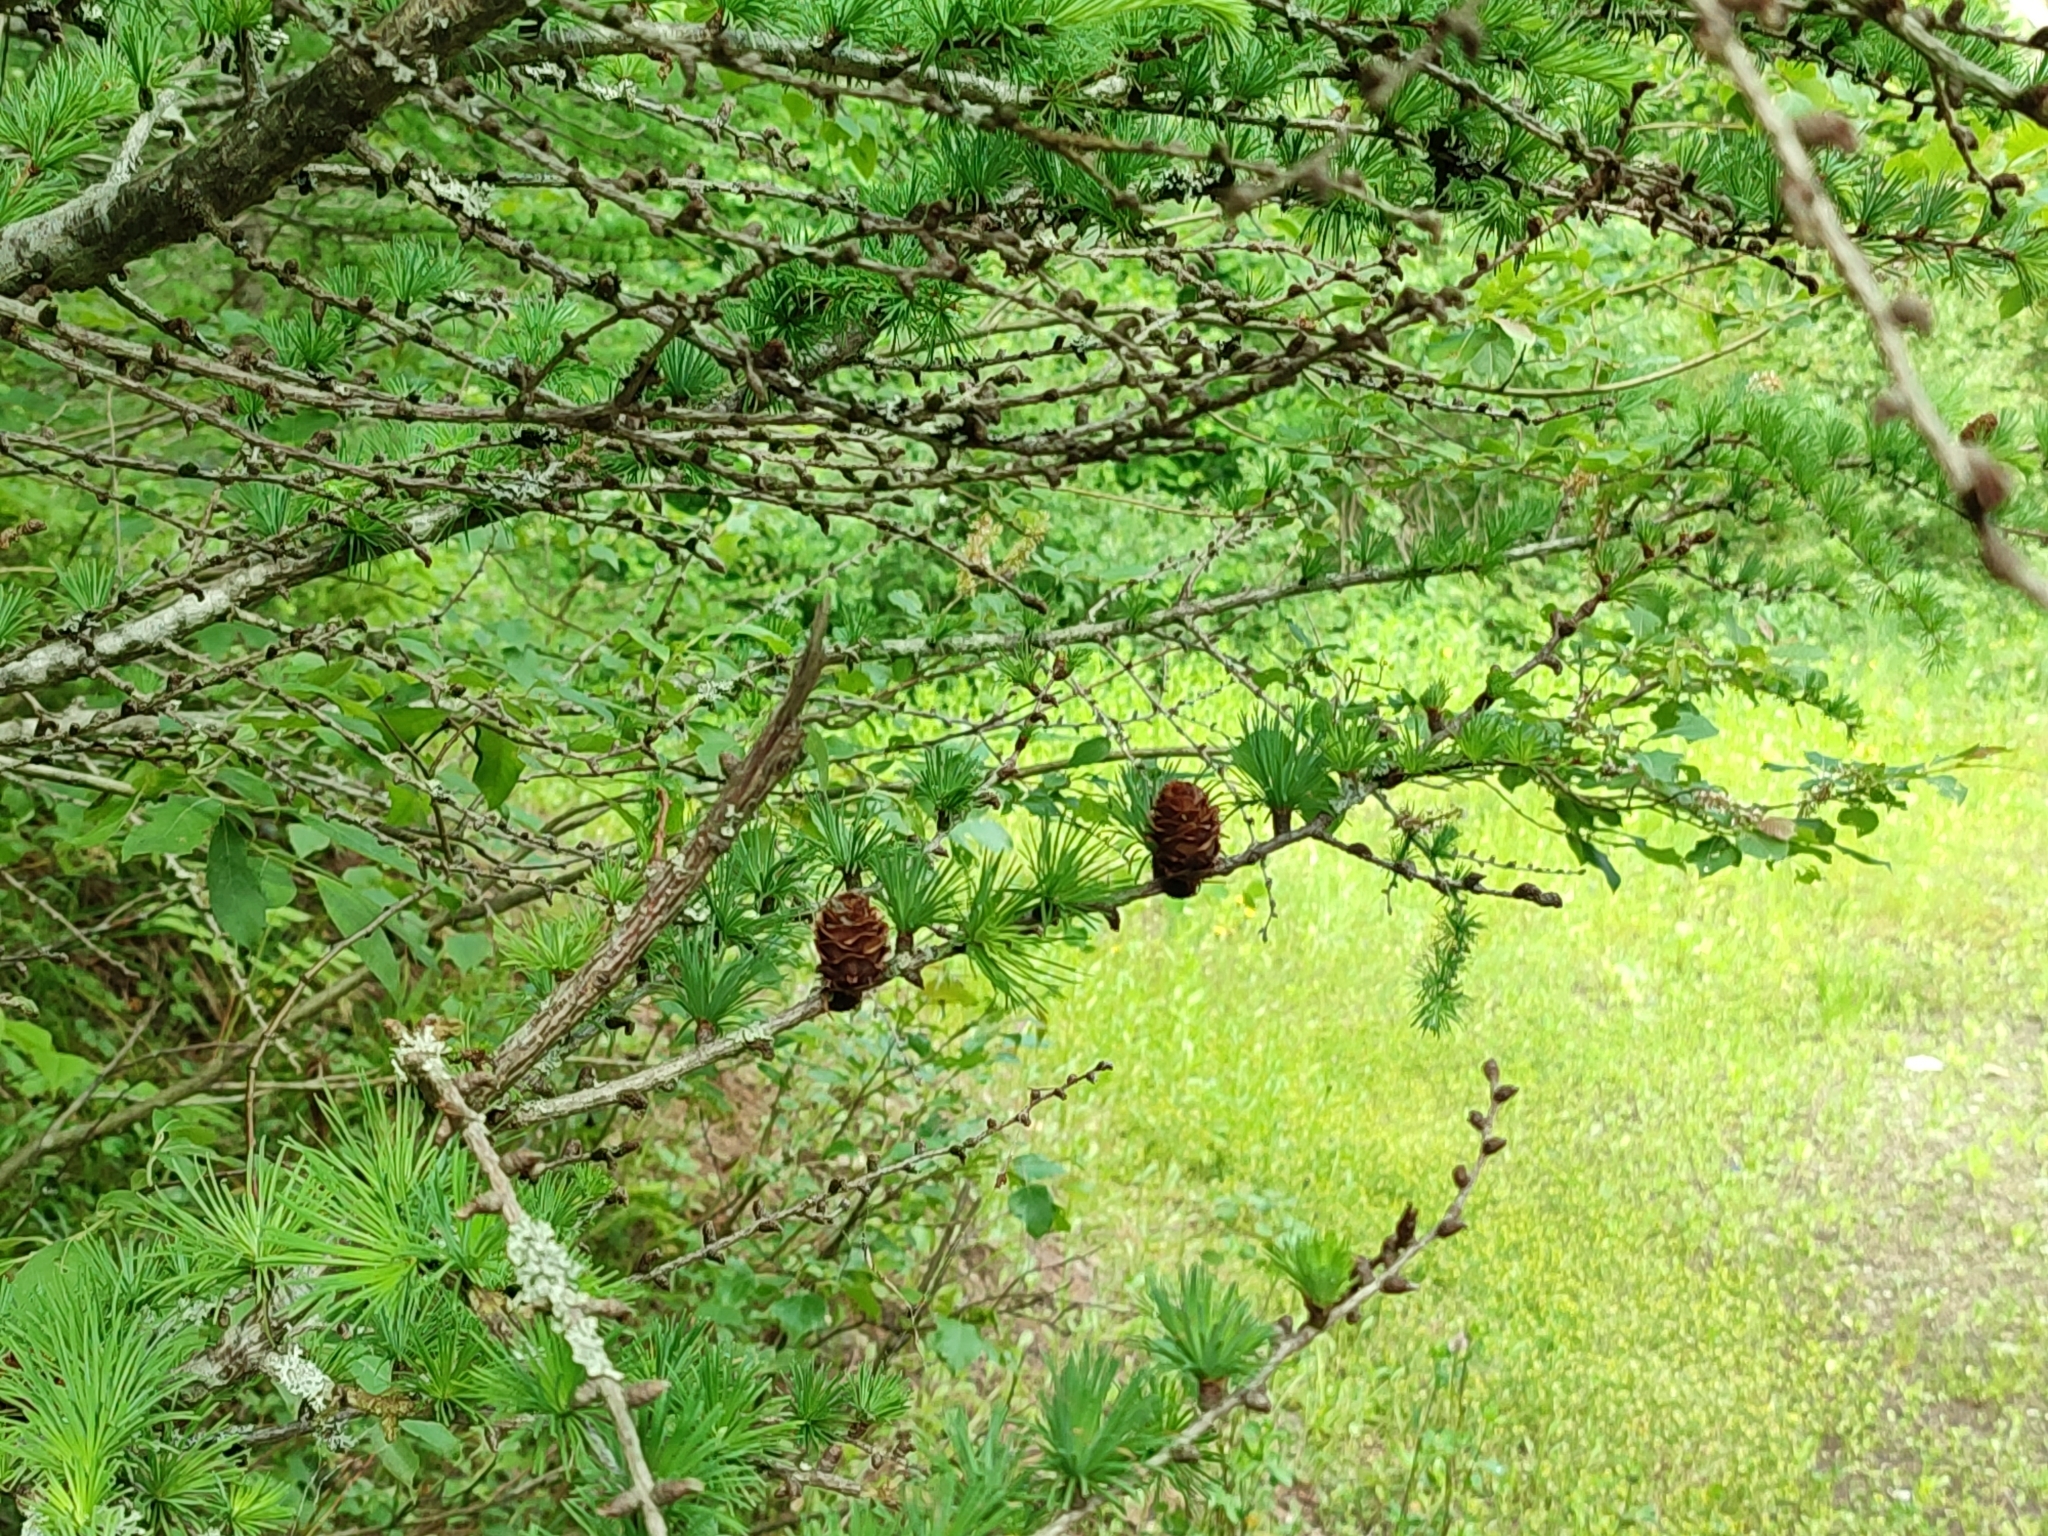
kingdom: Plantae
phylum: Tracheophyta
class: Pinopsida
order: Pinales
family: Pinaceae
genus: Larix
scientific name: Larix decidua
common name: European larch
